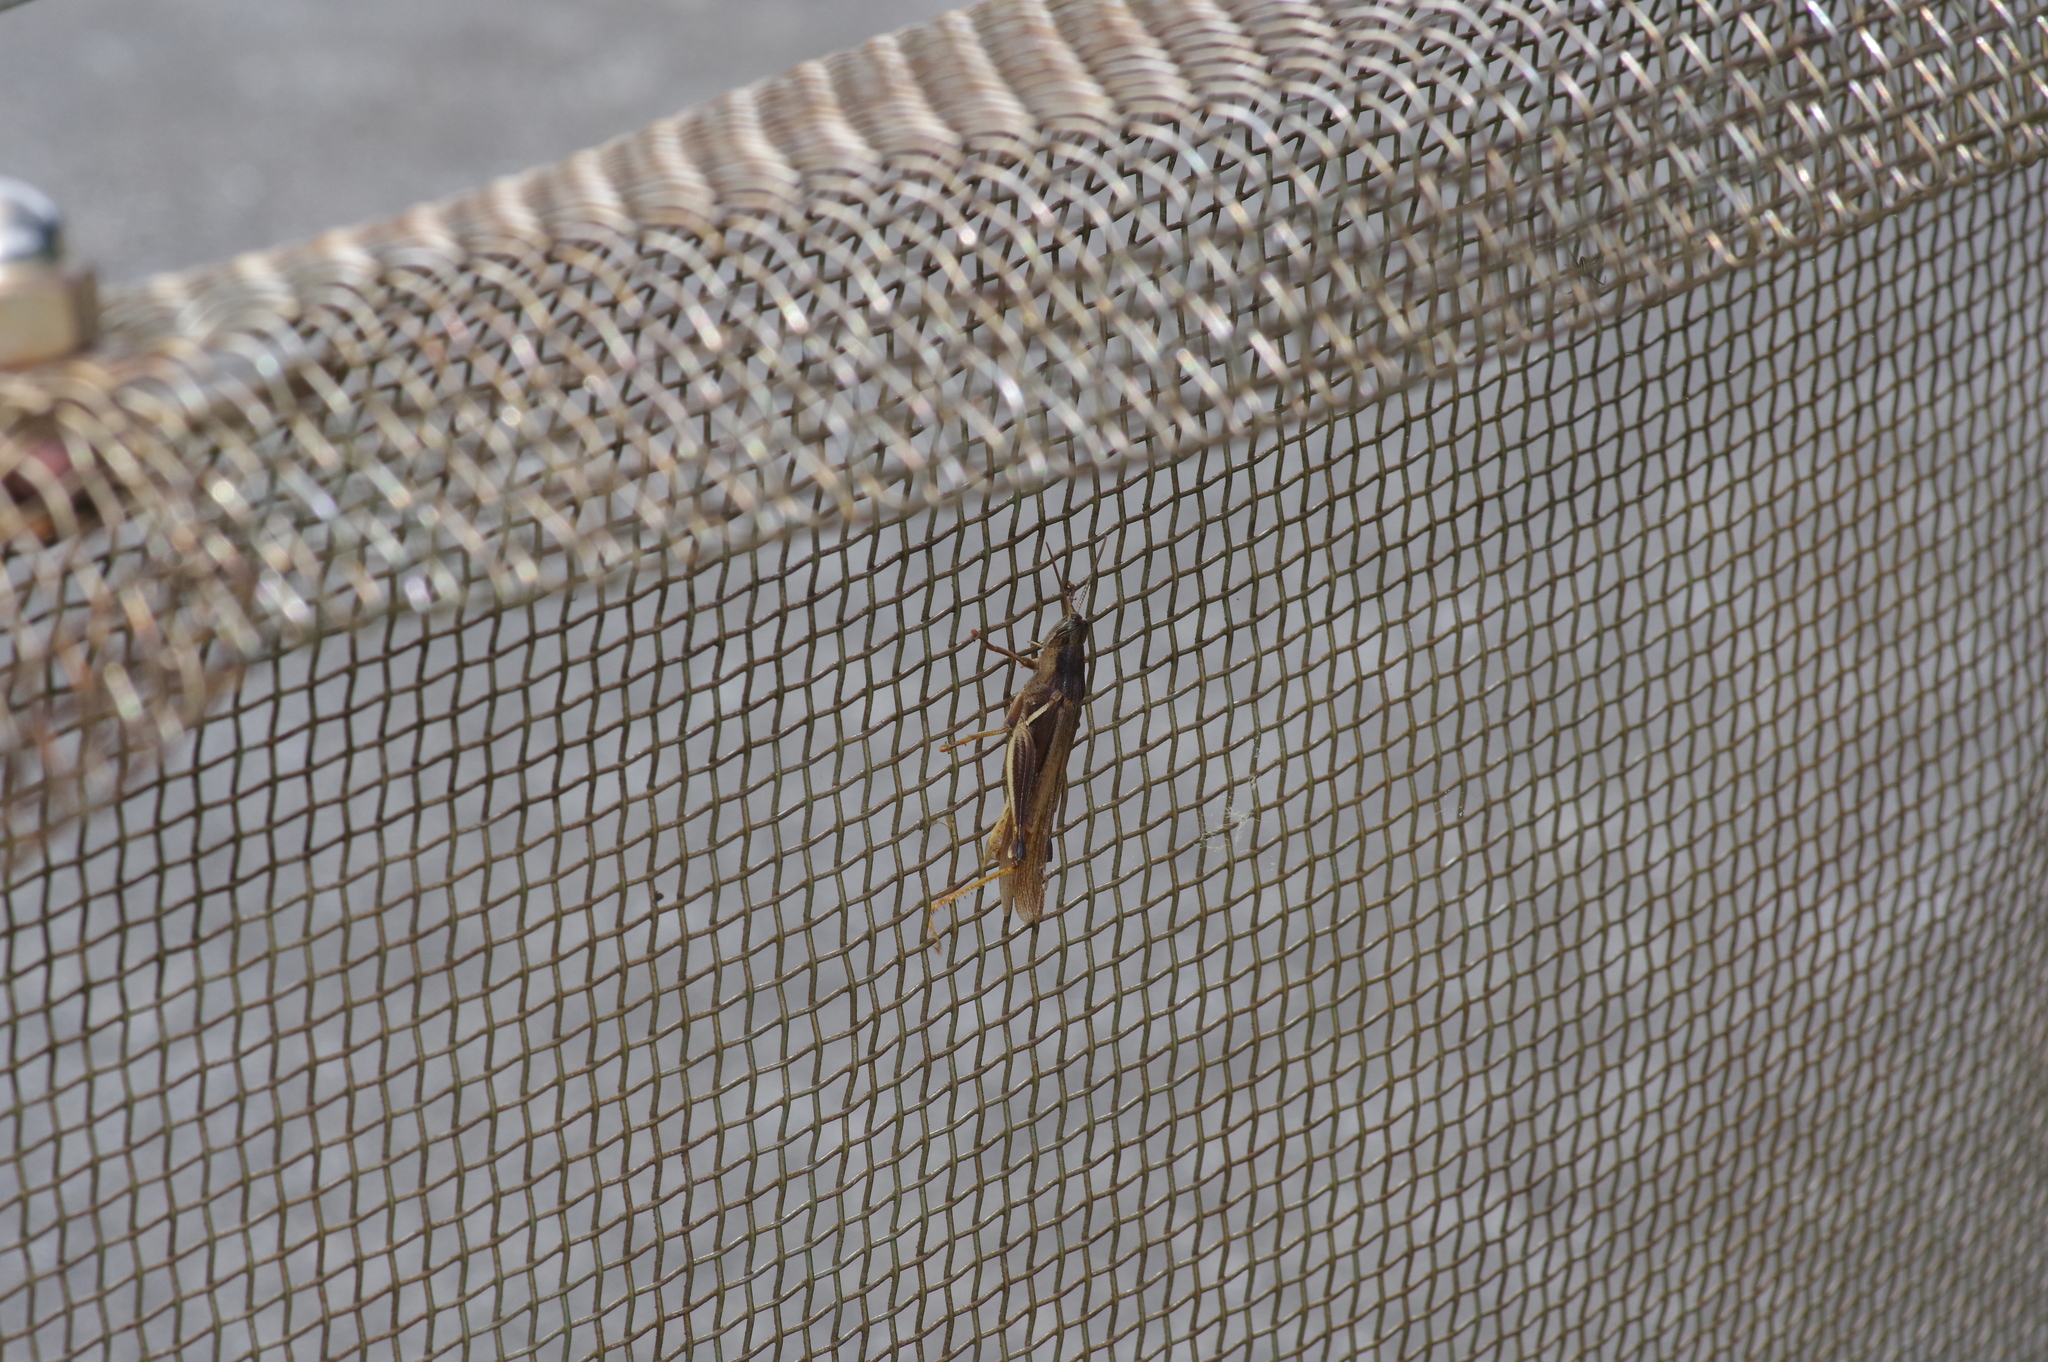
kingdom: Animalia
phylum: Arthropoda
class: Insecta
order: Orthoptera
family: Acrididae
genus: Stenocatantops
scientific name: Stenocatantops mistshenkoi
